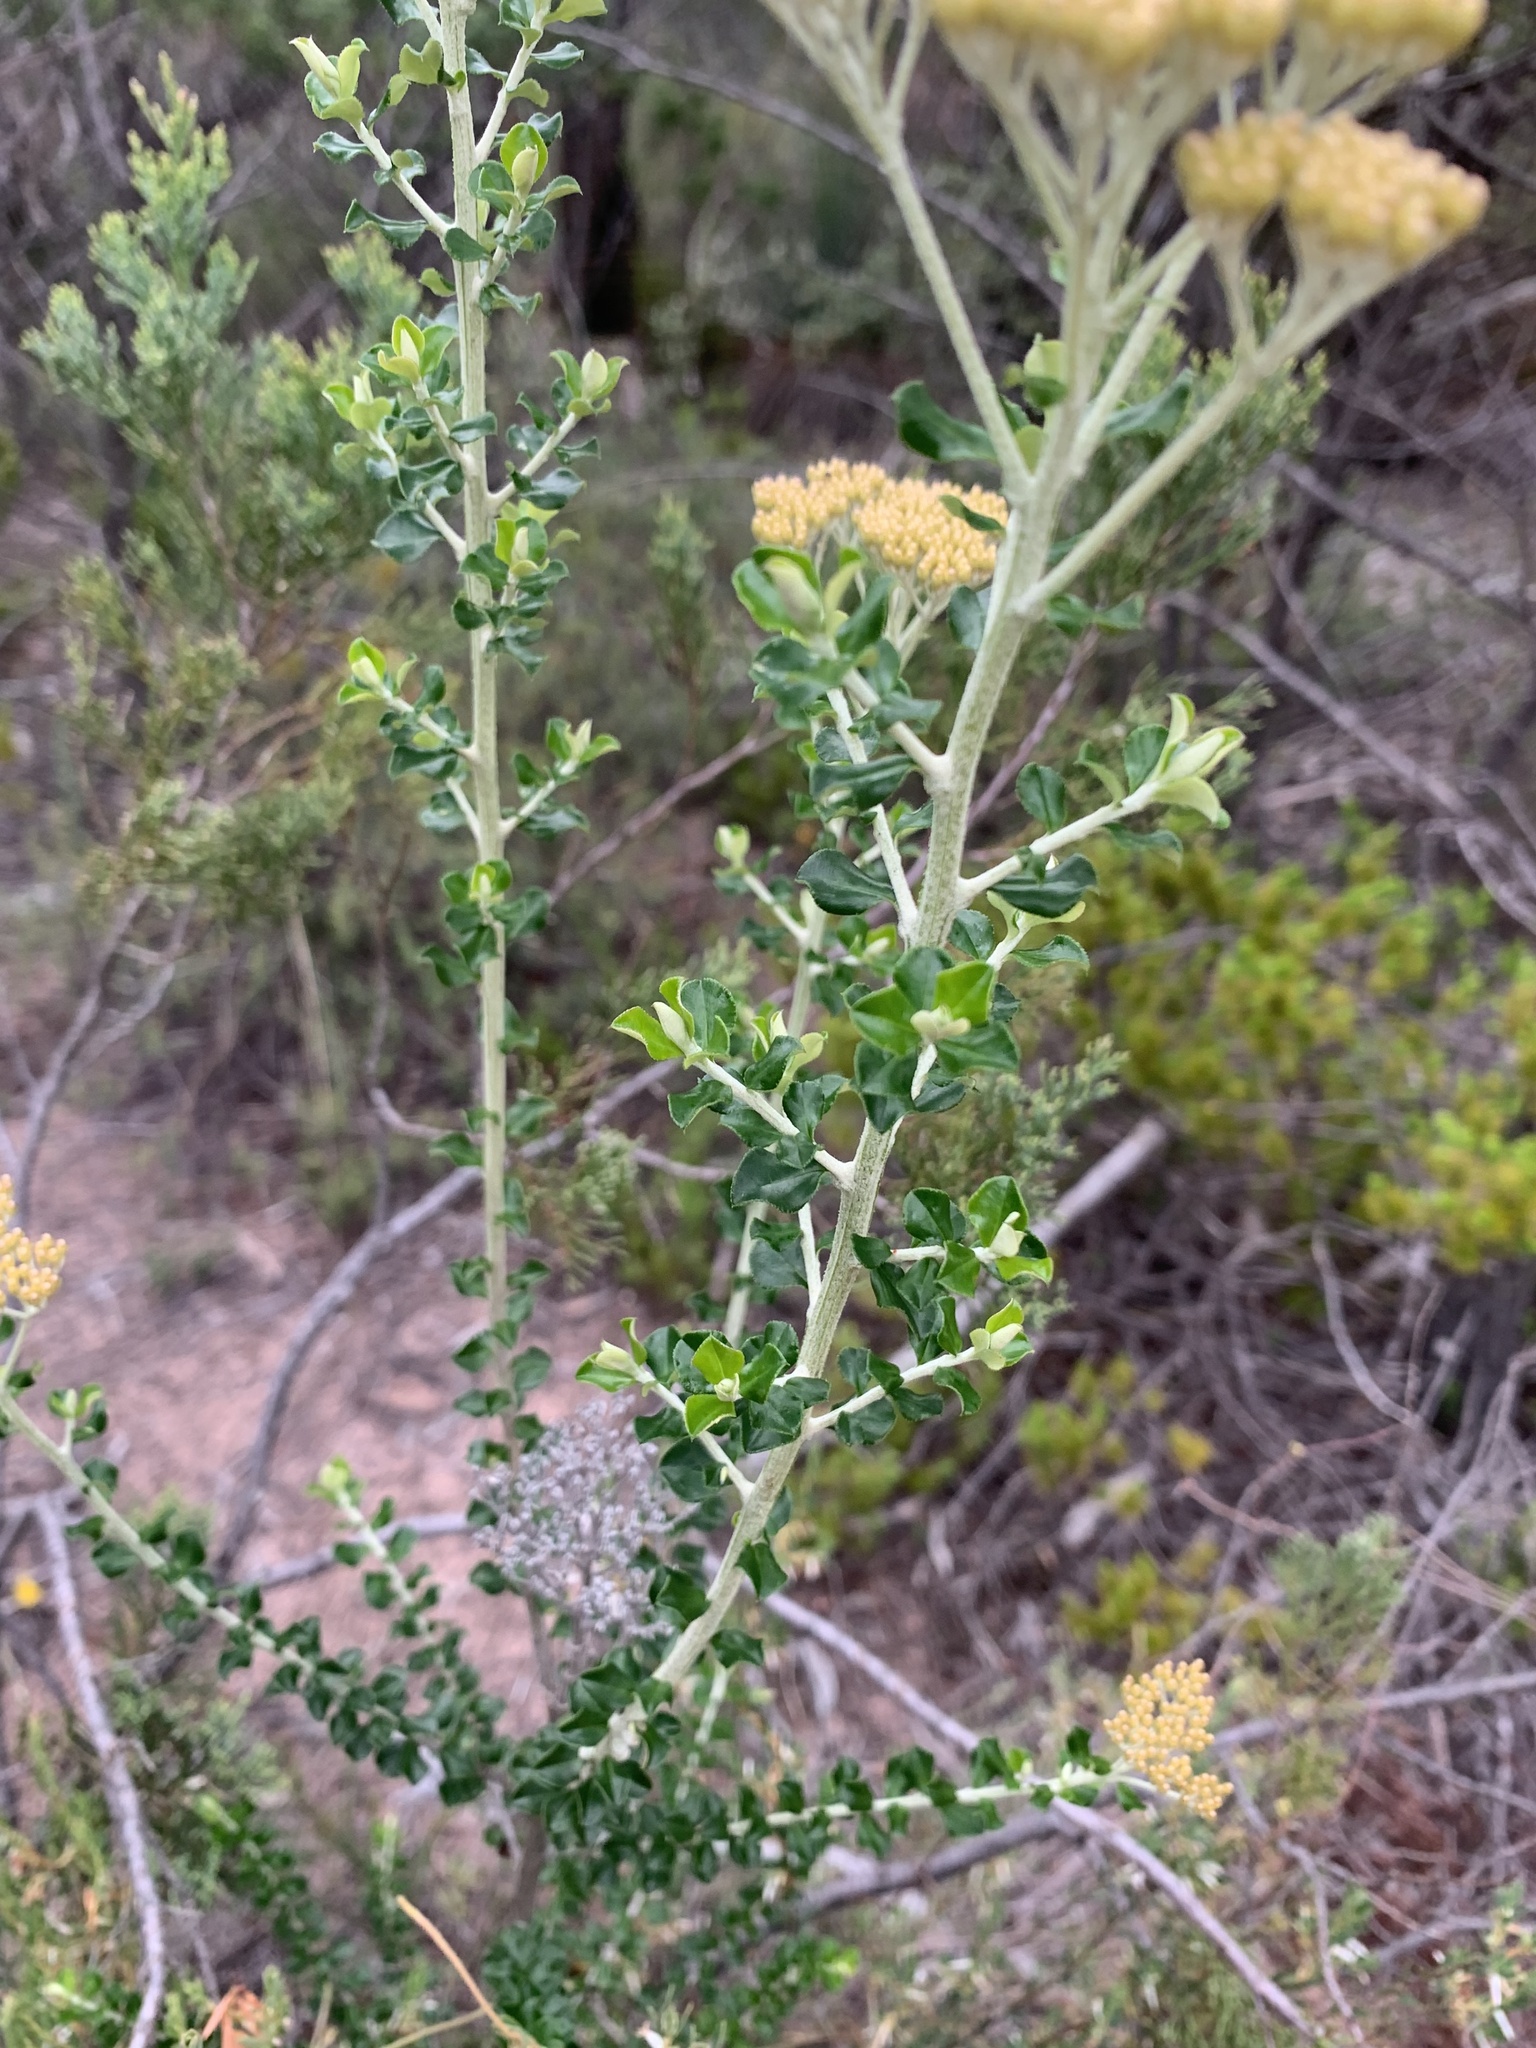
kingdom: Plantae
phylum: Tracheophyta
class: Magnoliopsida
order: Asterales
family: Asteraceae
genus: Ozothamnus
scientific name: Ozothamnus obcordatus
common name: Grey everlasting
